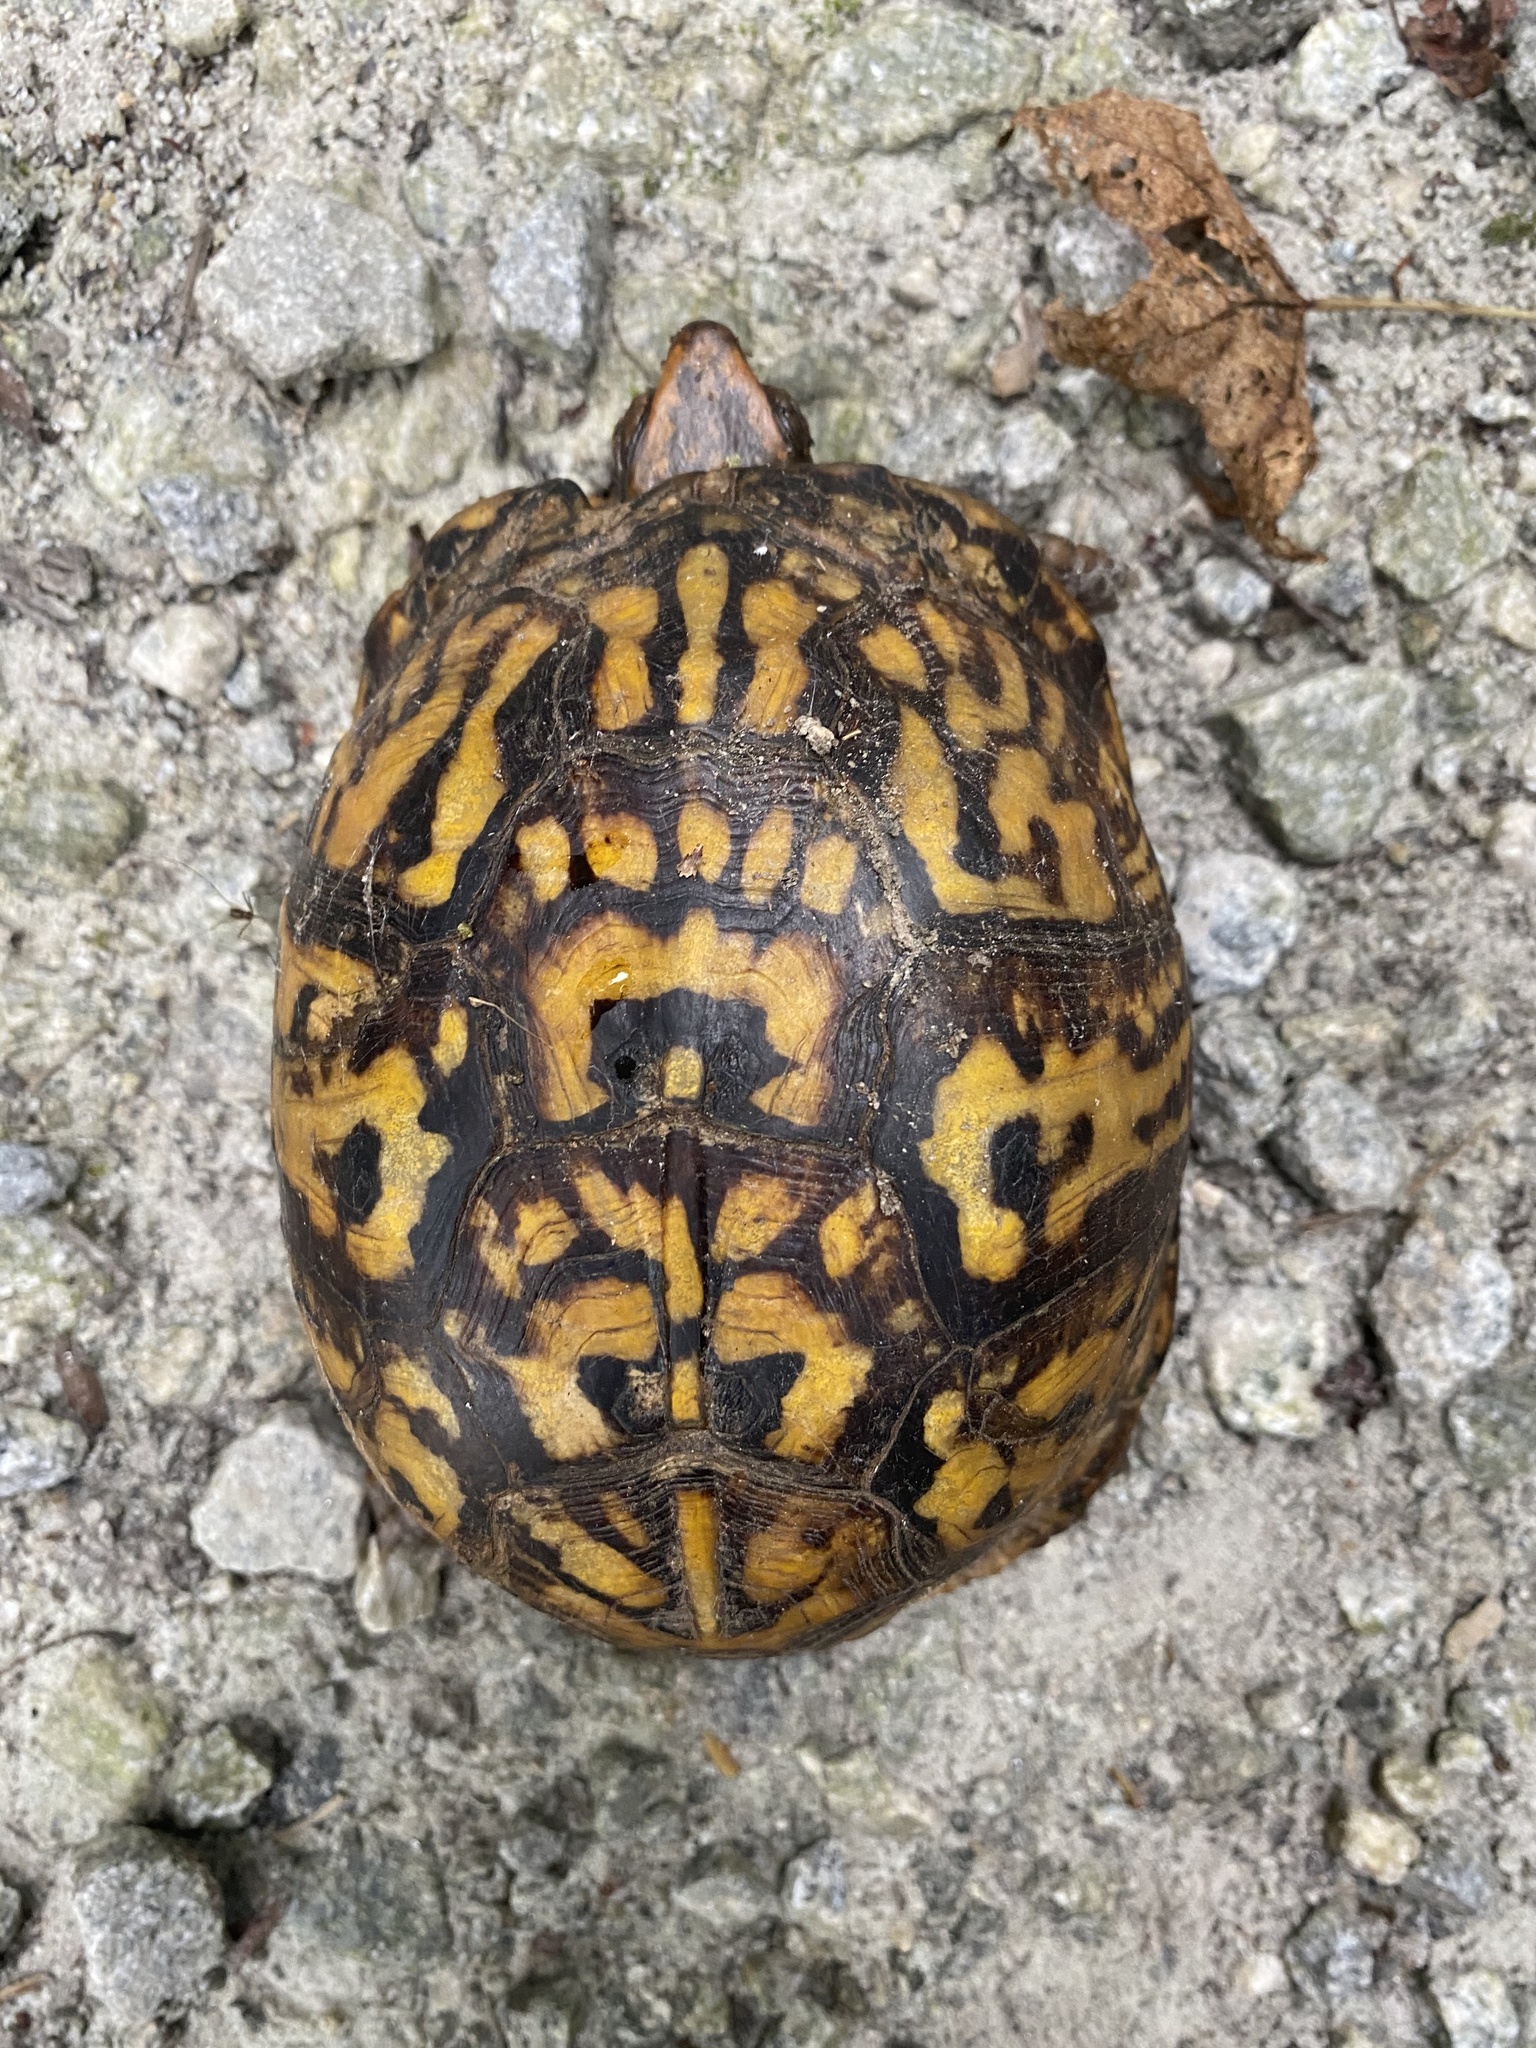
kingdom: Animalia
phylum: Chordata
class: Testudines
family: Emydidae
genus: Terrapene
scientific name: Terrapene carolina
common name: Common box turtle
